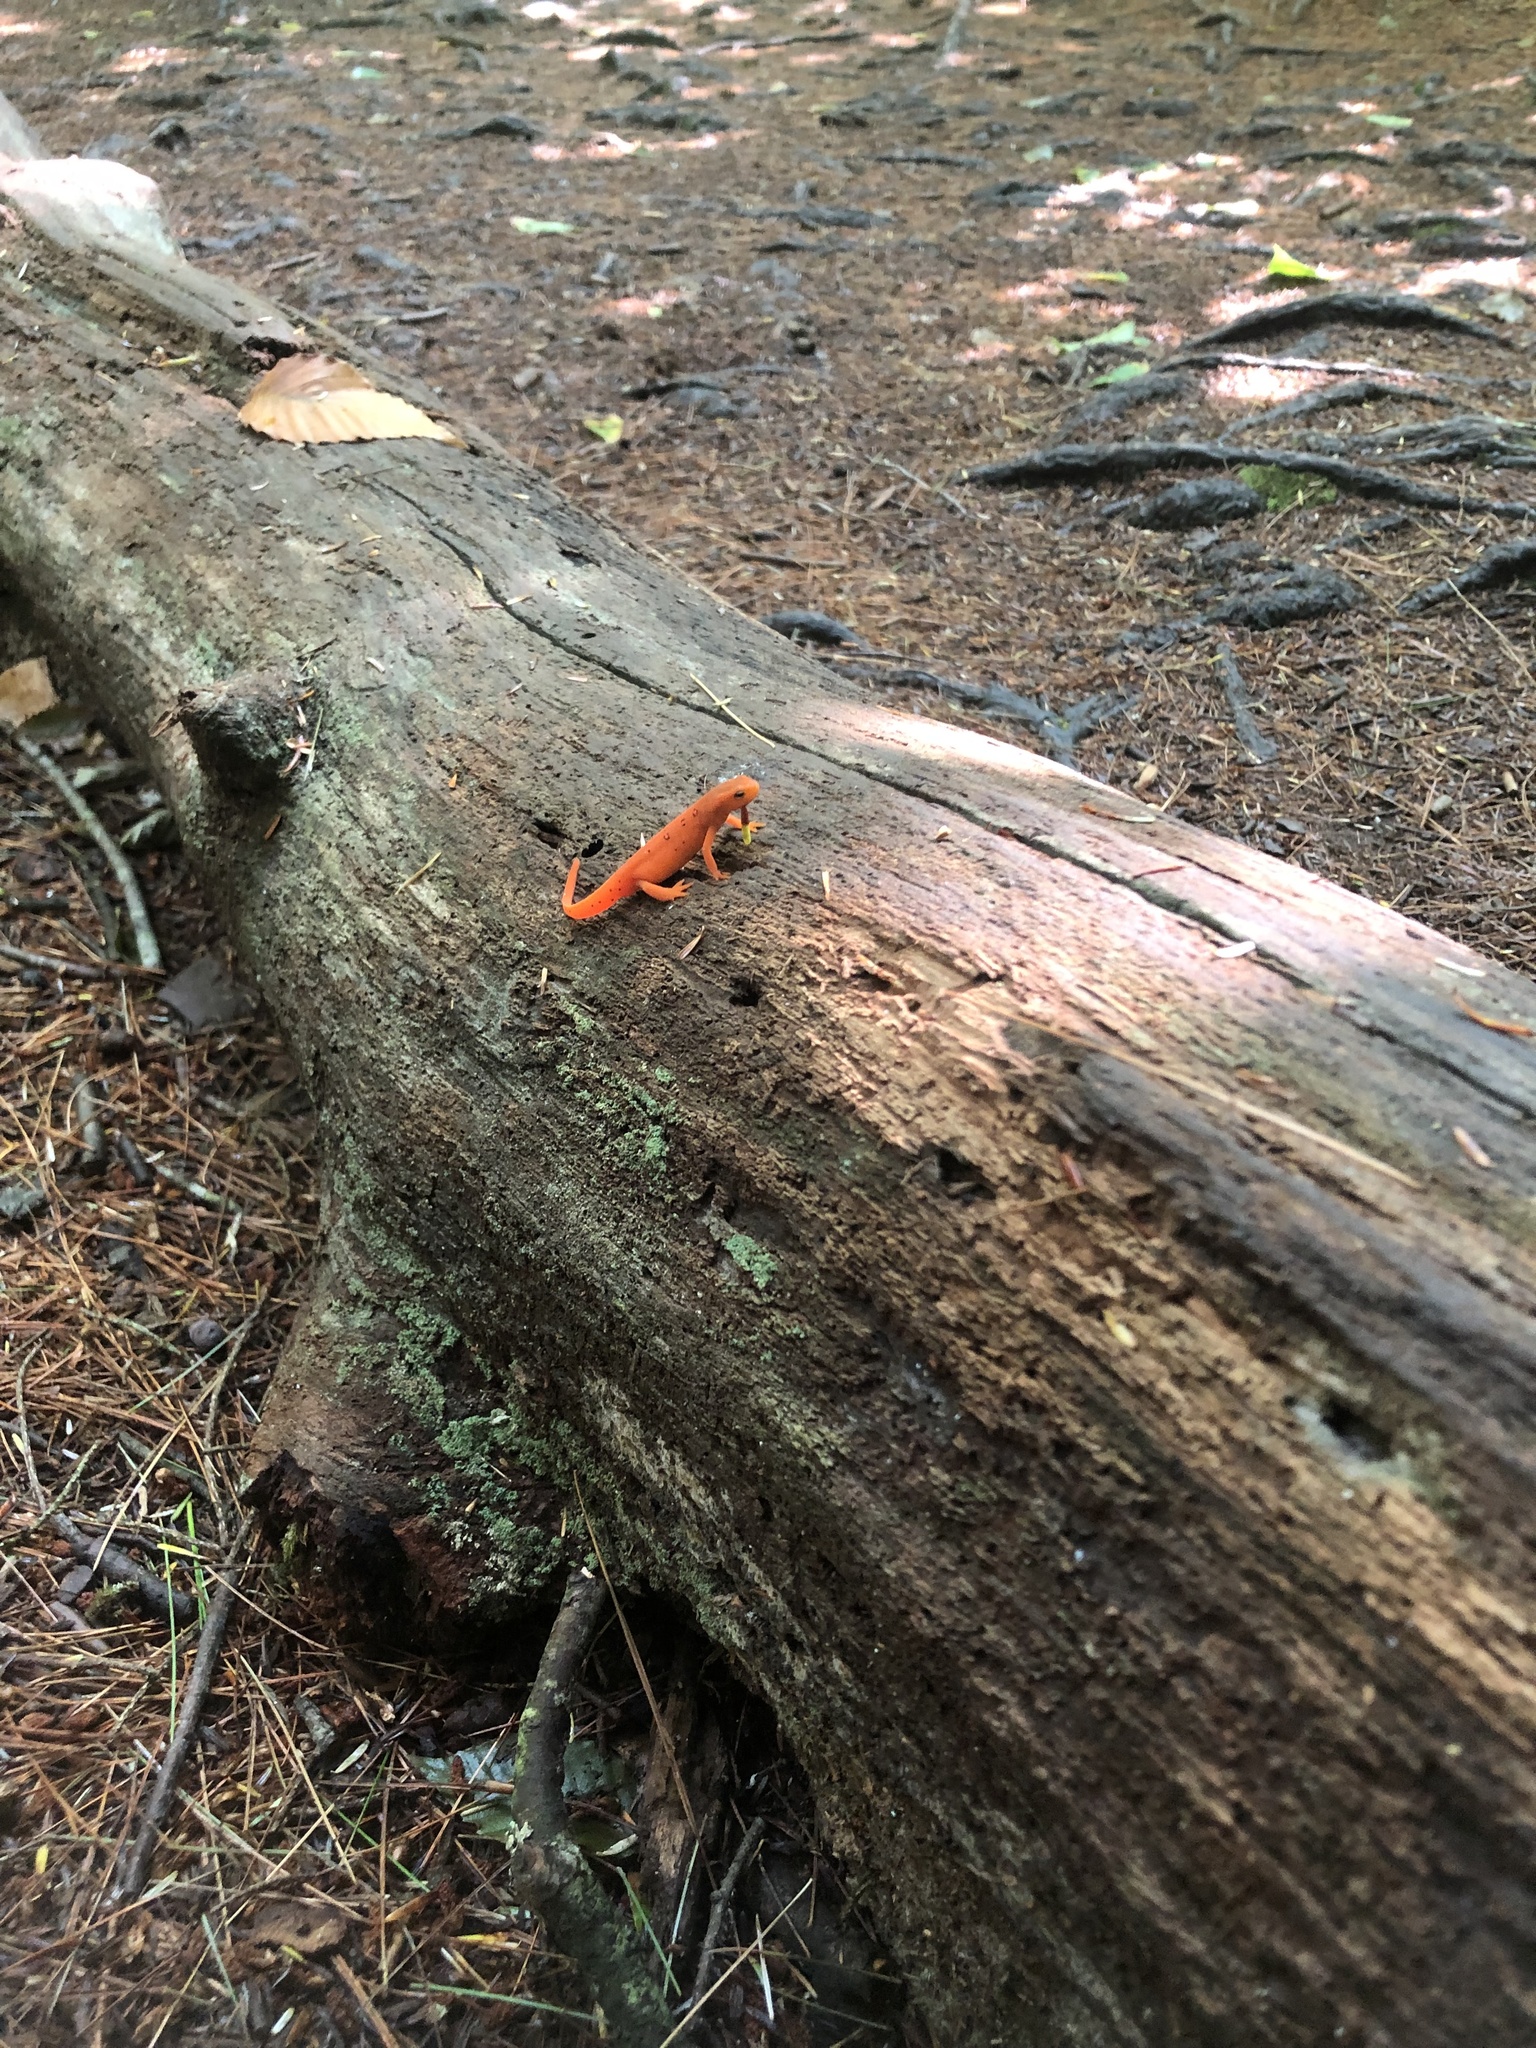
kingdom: Animalia
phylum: Chordata
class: Amphibia
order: Caudata
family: Salamandridae
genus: Notophthalmus
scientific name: Notophthalmus viridescens
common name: Eastern newt
